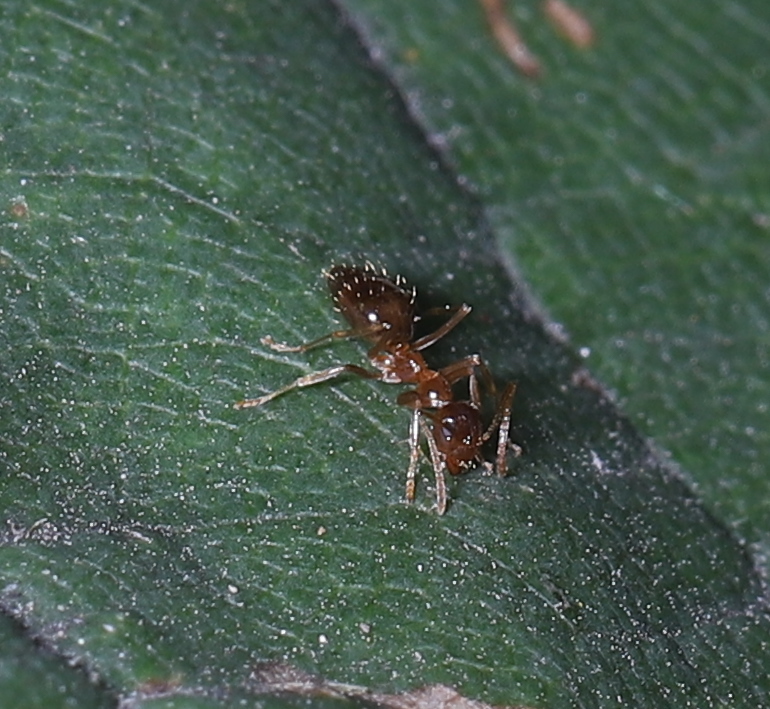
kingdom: Animalia
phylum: Arthropoda
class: Insecta
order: Hymenoptera
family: Formicidae
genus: Prenolepis
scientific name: Prenolepis imparis
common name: Small honey ant
